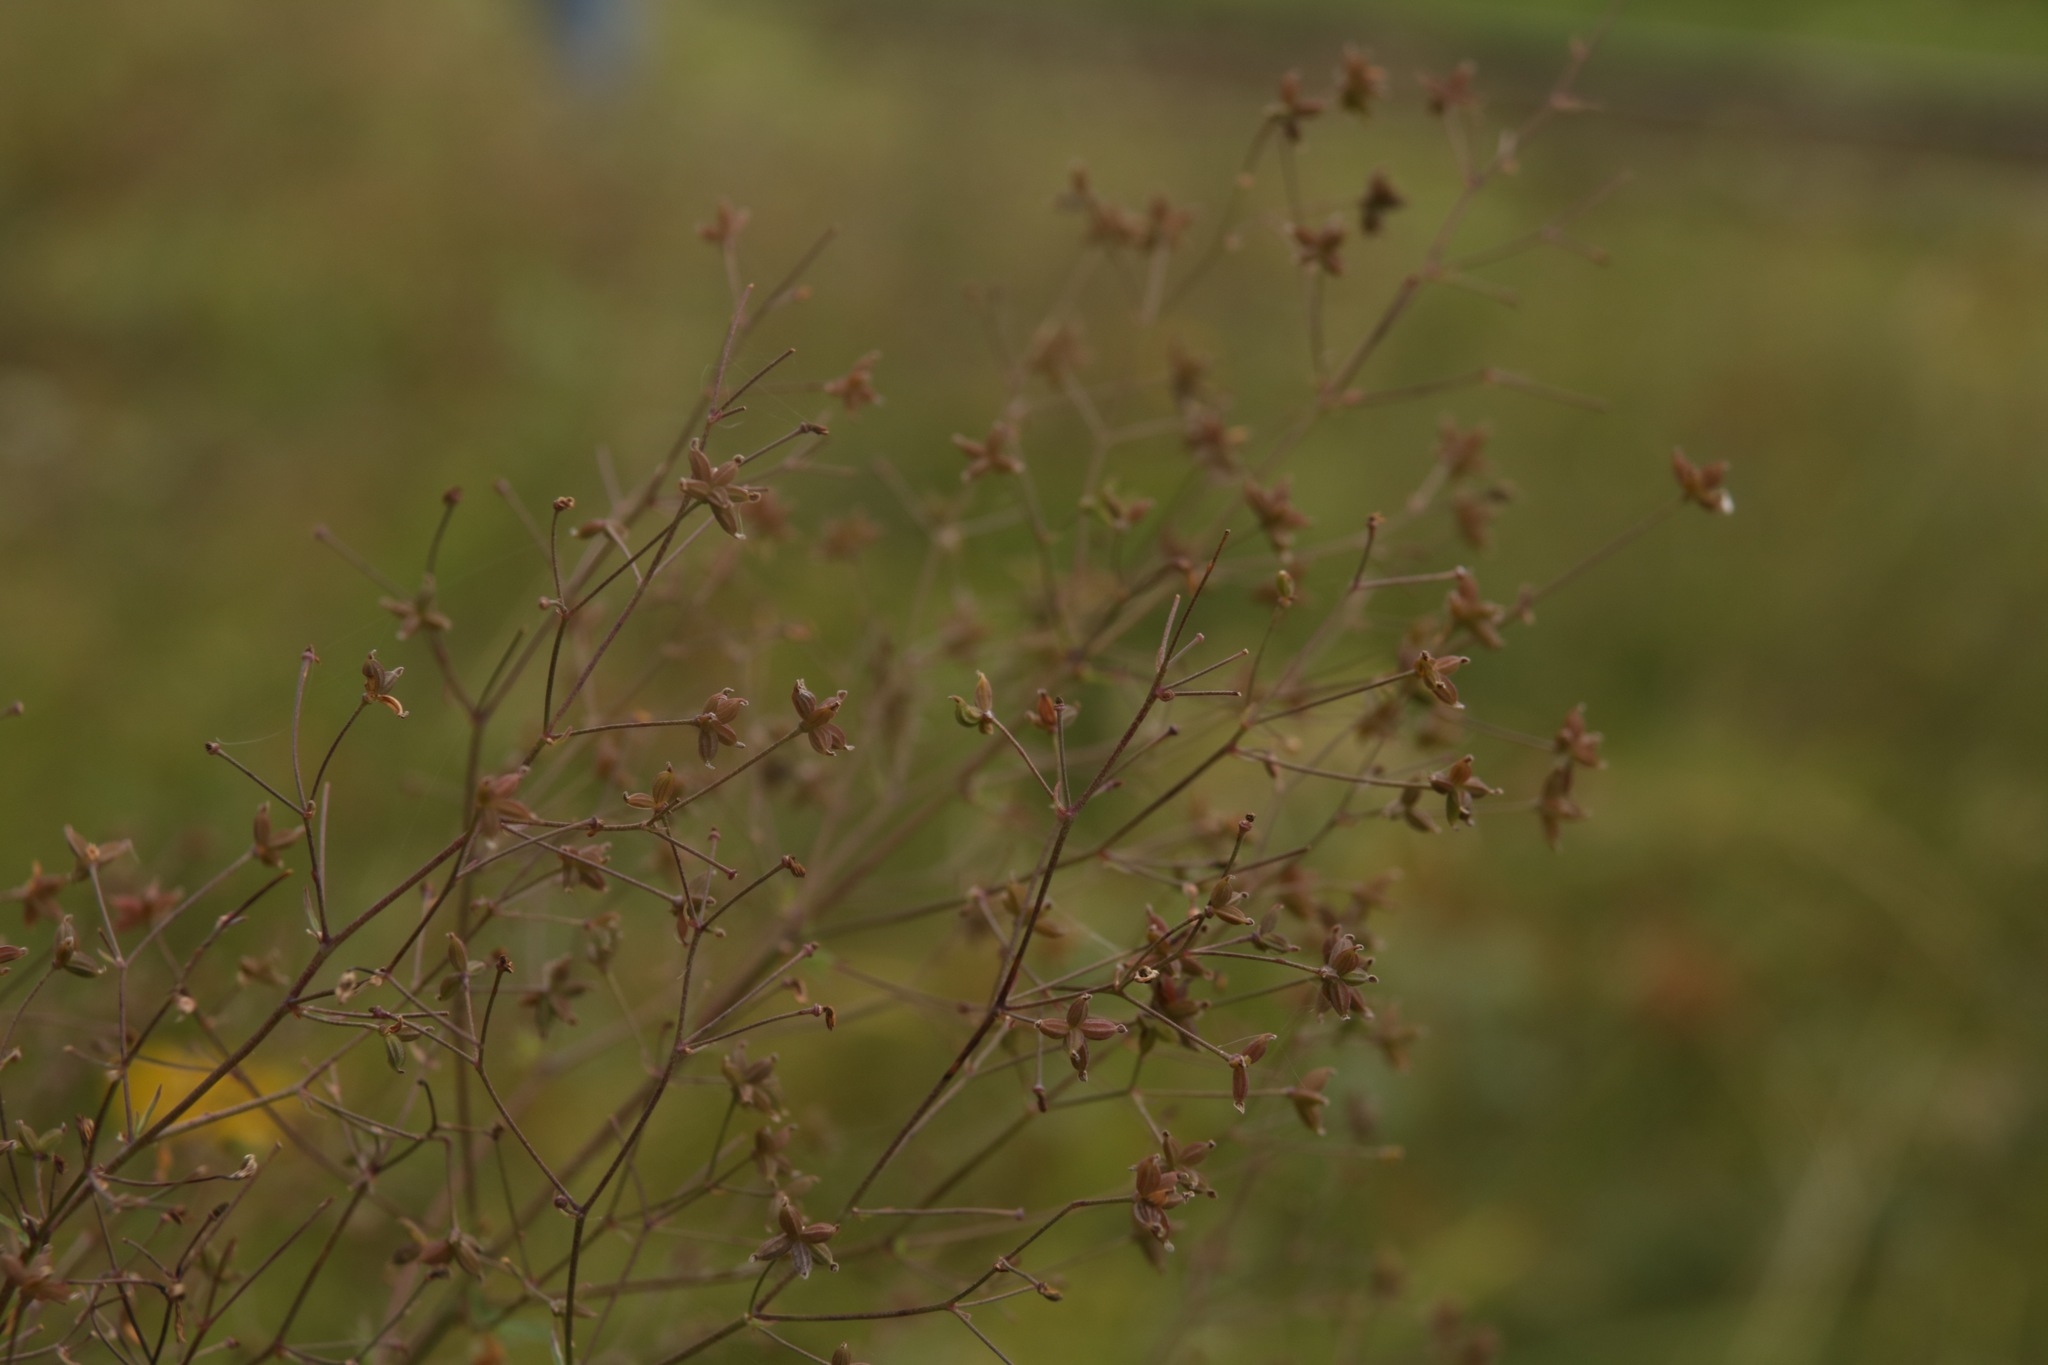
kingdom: Plantae
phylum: Tracheophyta
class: Magnoliopsida
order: Ranunculales
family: Ranunculaceae
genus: Thalictrum
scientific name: Thalictrum minus
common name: Lesser meadow-rue
